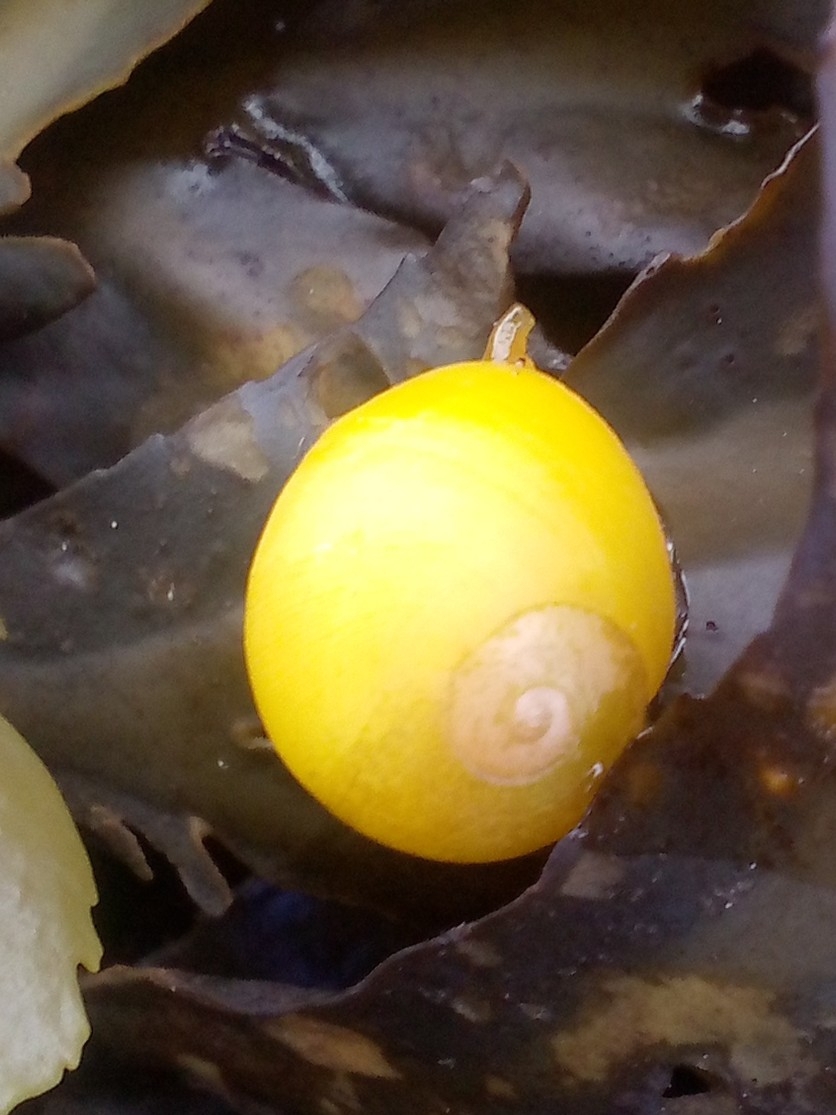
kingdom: Animalia
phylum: Mollusca
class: Gastropoda
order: Littorinimorpha
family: Littorinidae
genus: Littorina
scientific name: Littorina fabalis
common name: Flat periwinkle
